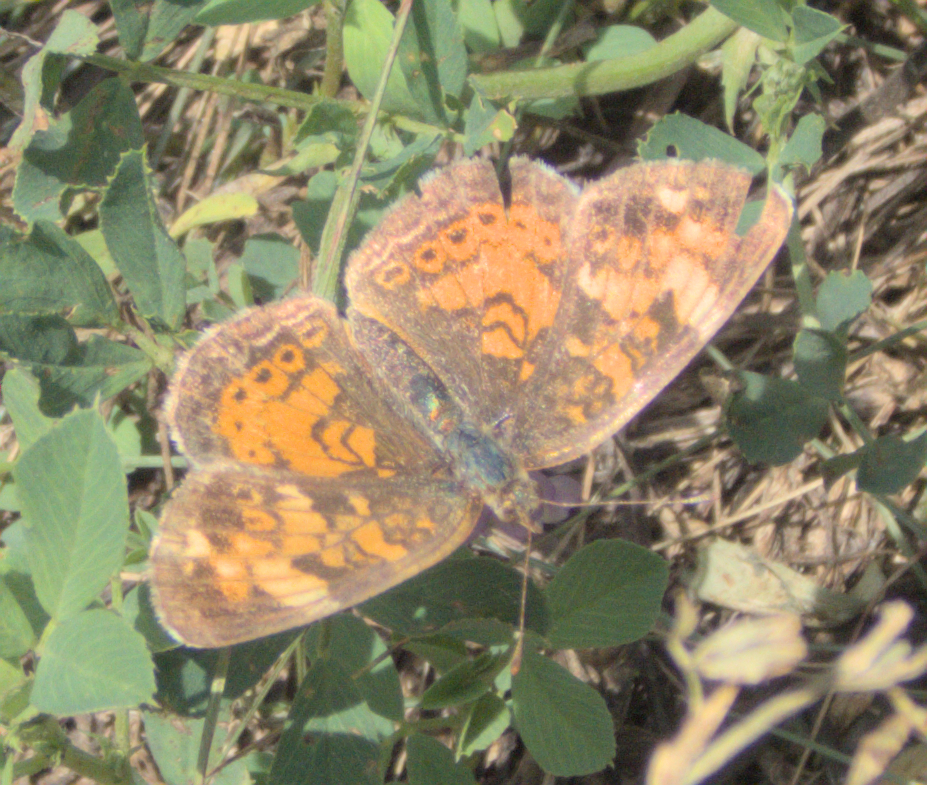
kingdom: Animalia
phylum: Arthropoda
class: Insecta
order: Lepidoptera
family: Nymphalidae
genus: Phyciodes
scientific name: Phyciodes tharos
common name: Pearl crescent
